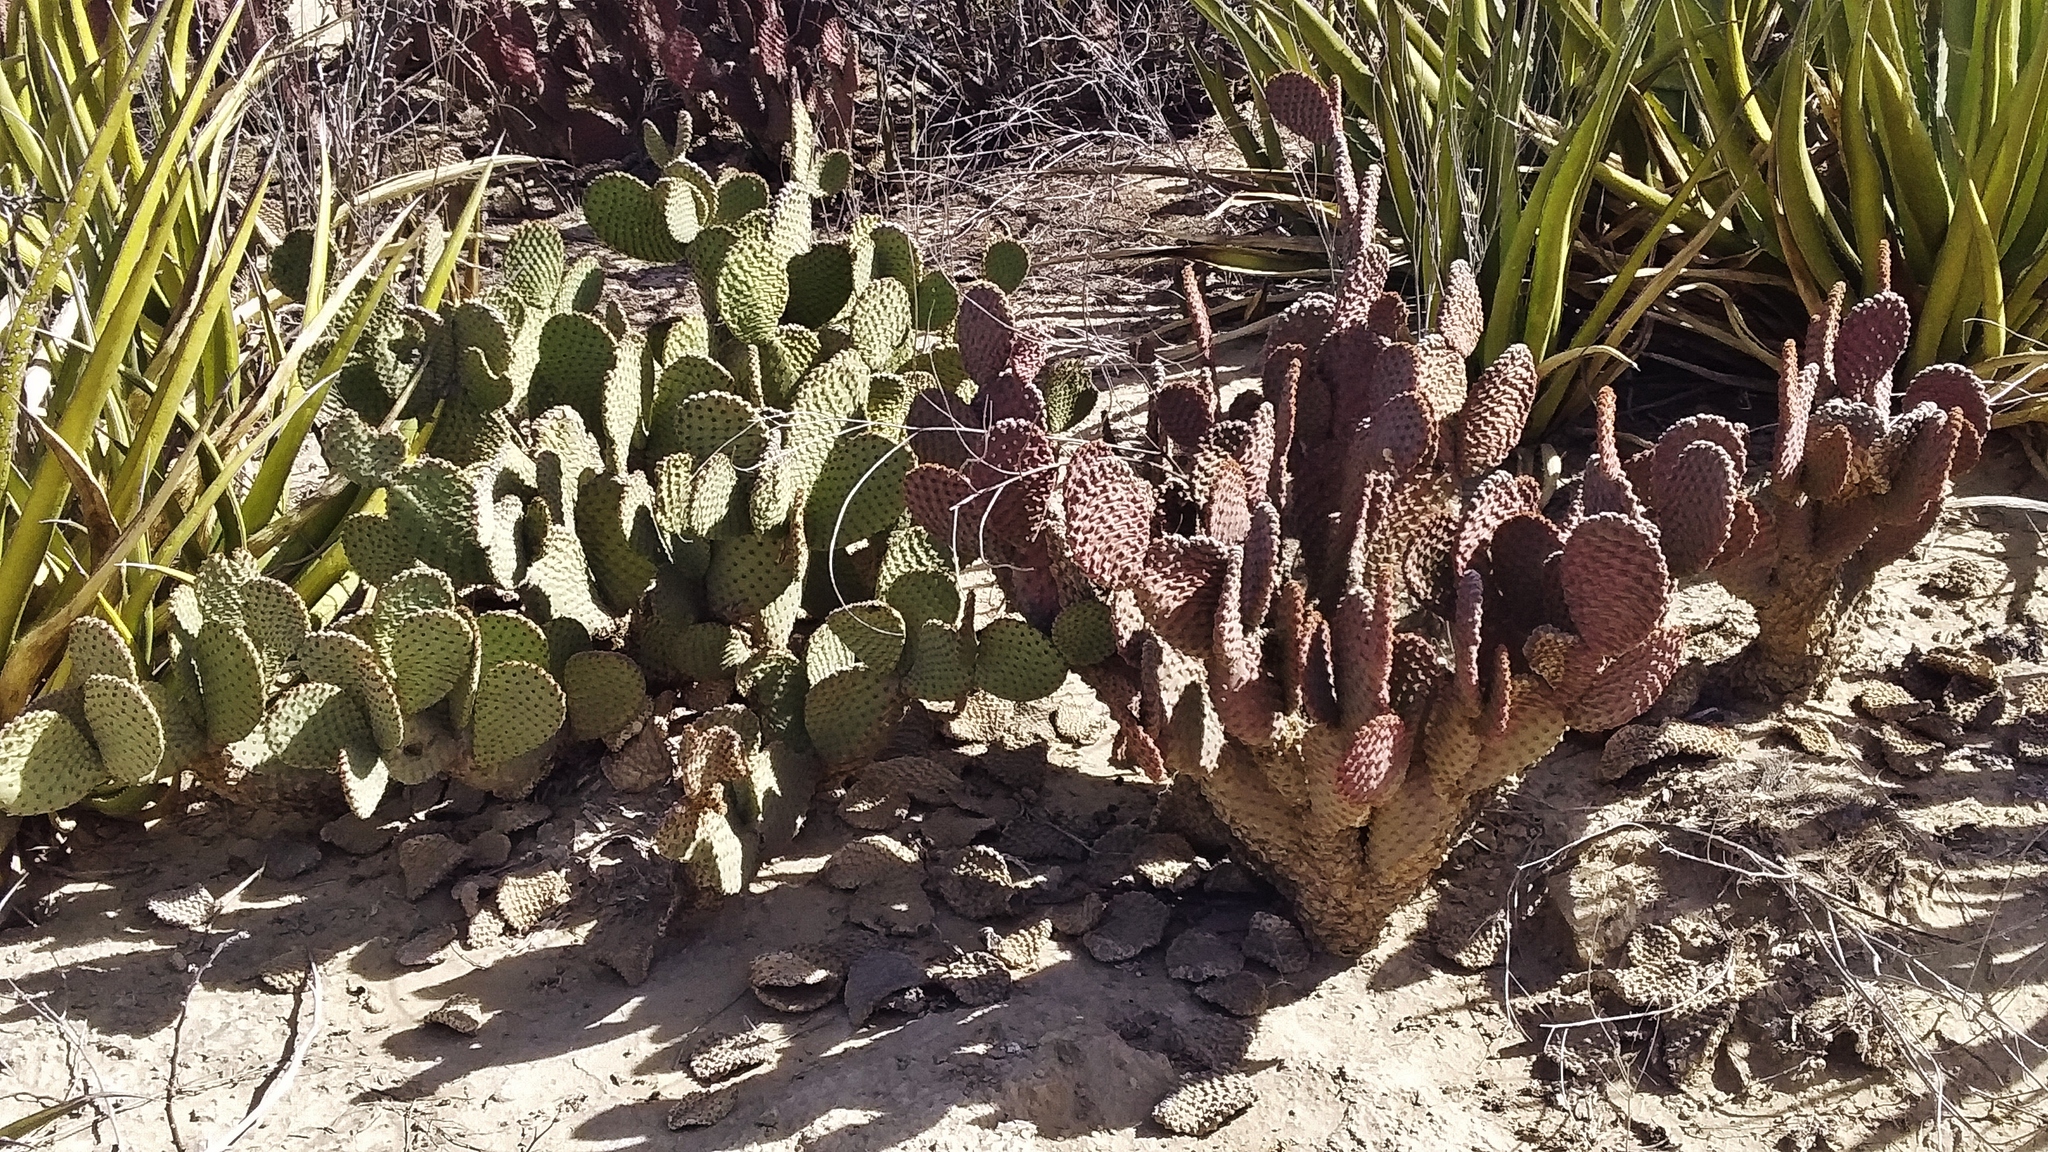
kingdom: Plantae
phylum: Tracheophyta
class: Magnoliopsida
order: Caryophyllales
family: Cactaceae
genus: Opuntia
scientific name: Opuntia microdasys
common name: Angel's-wings
